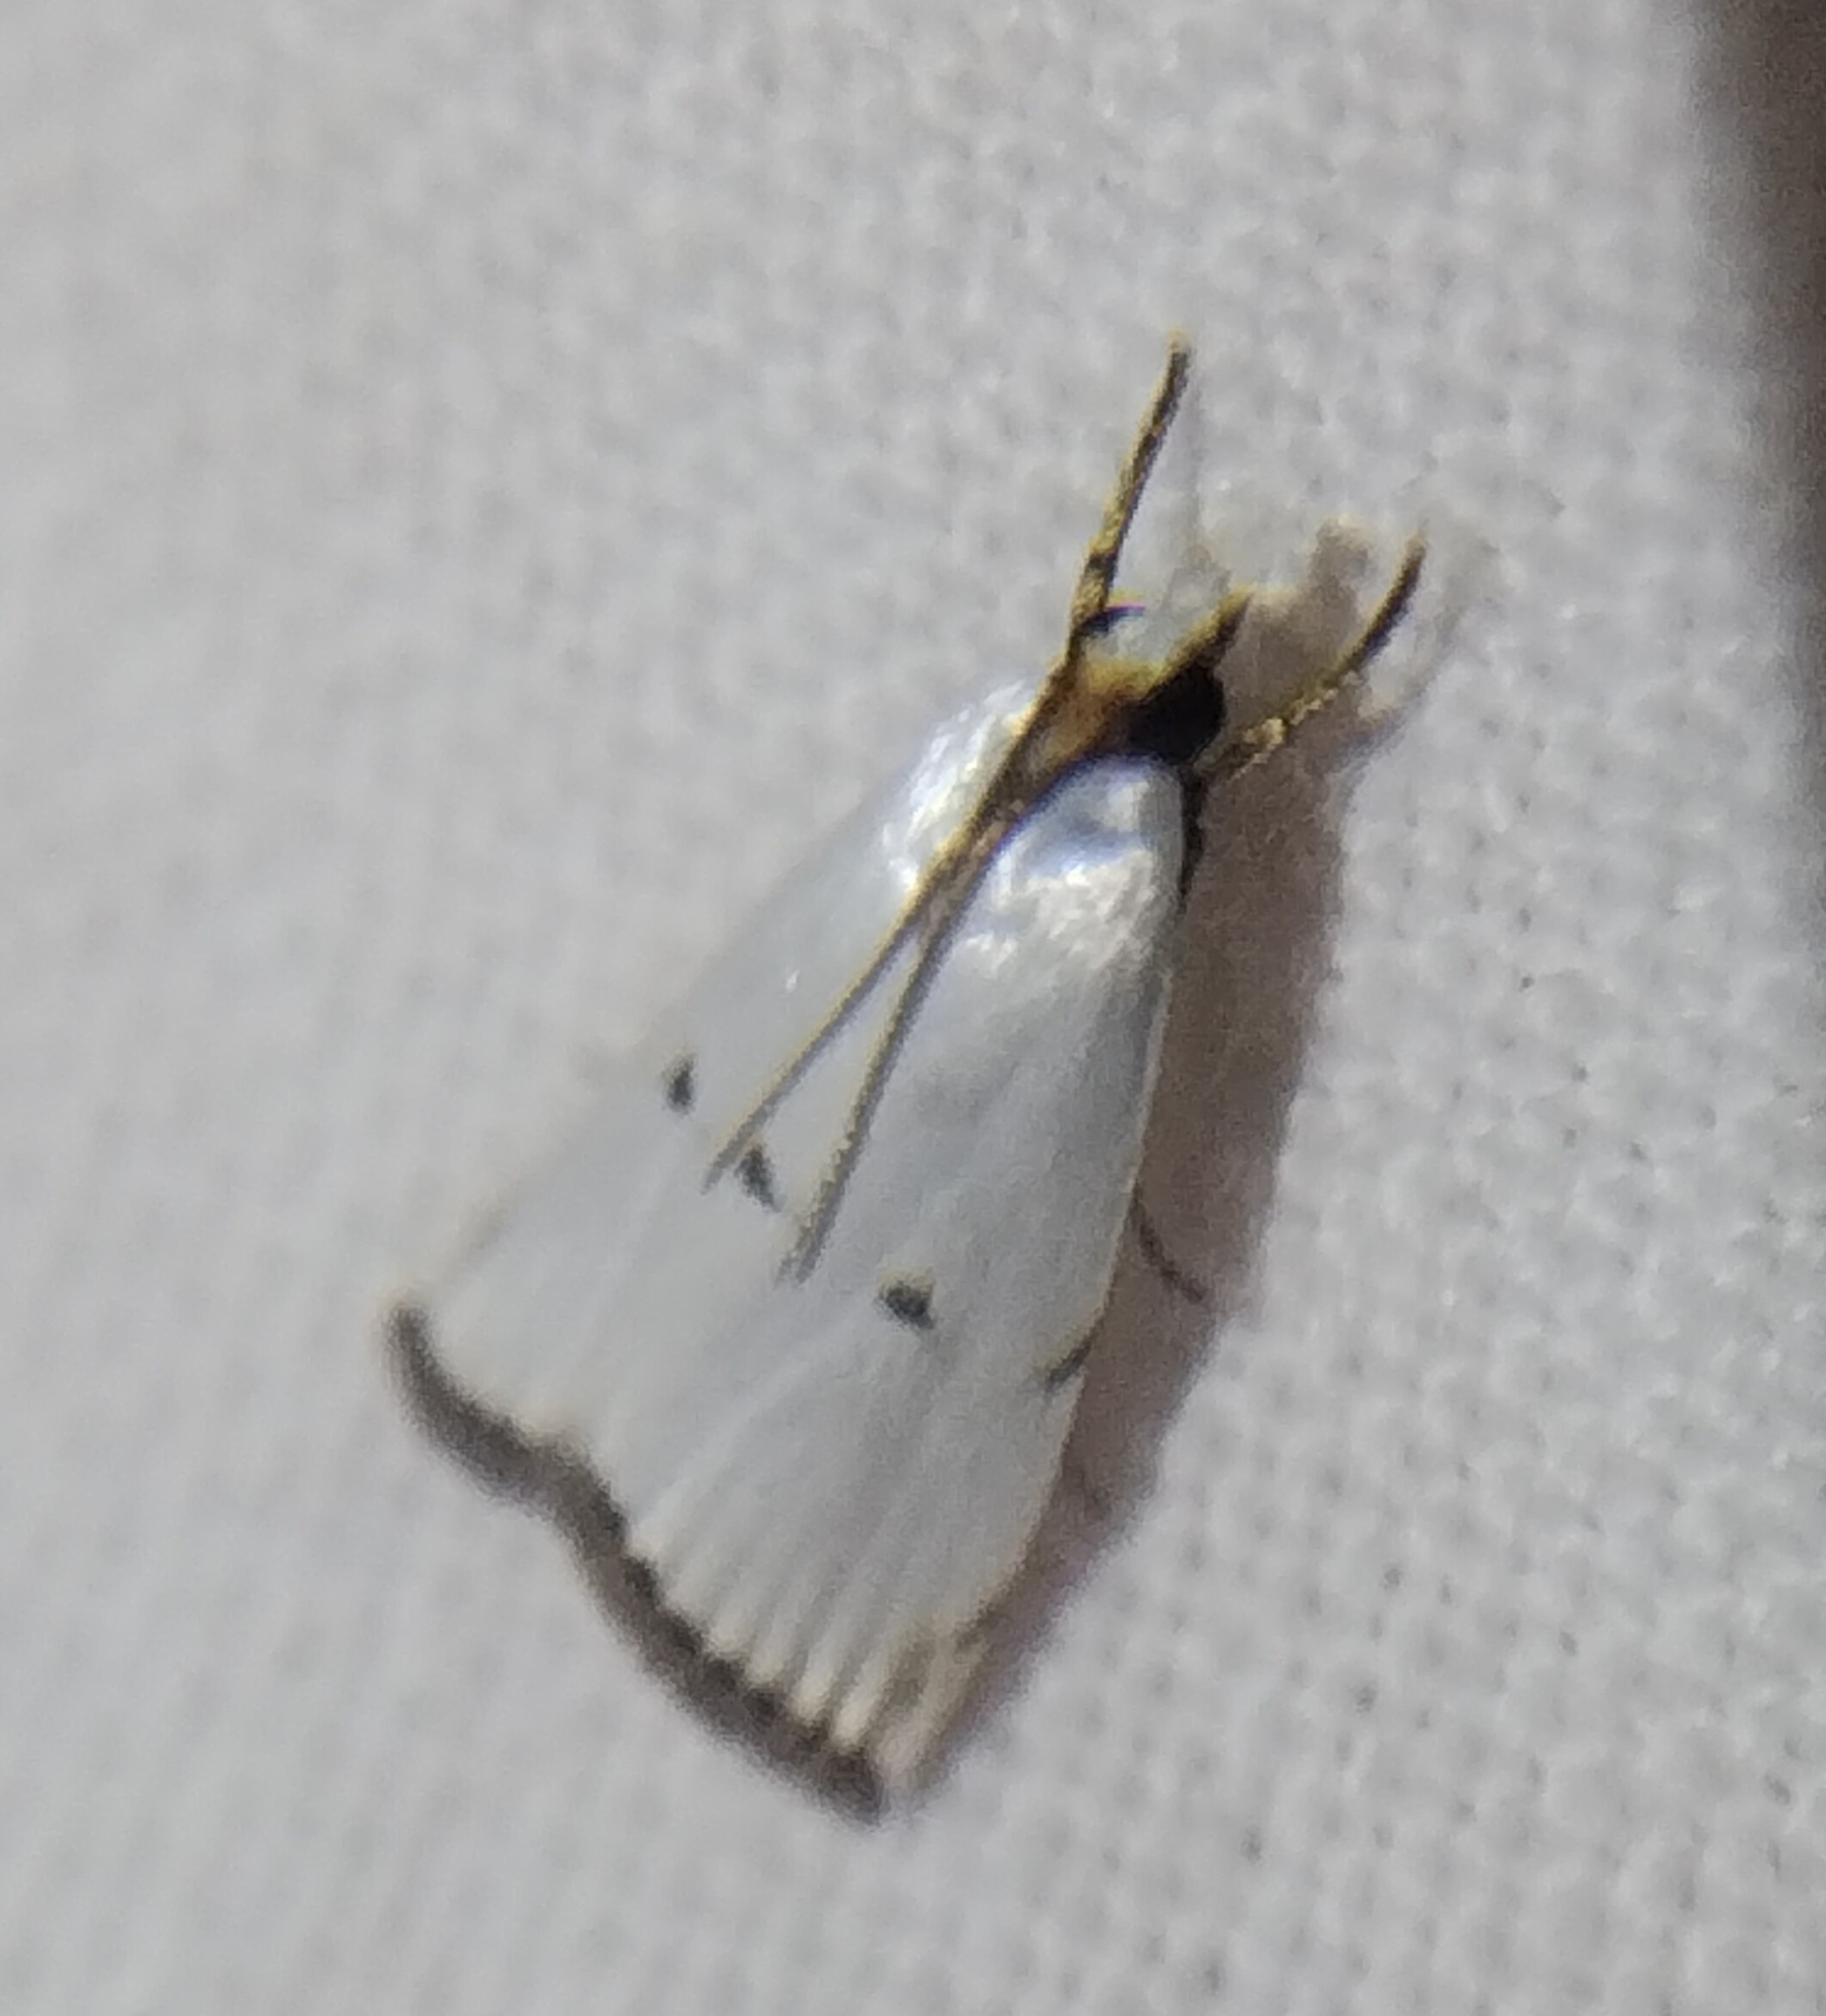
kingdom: Animalia
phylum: Arthropoda
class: Insecta
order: Lepidoptera
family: Crambidae
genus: Argyria
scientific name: Argyria pusillalis
